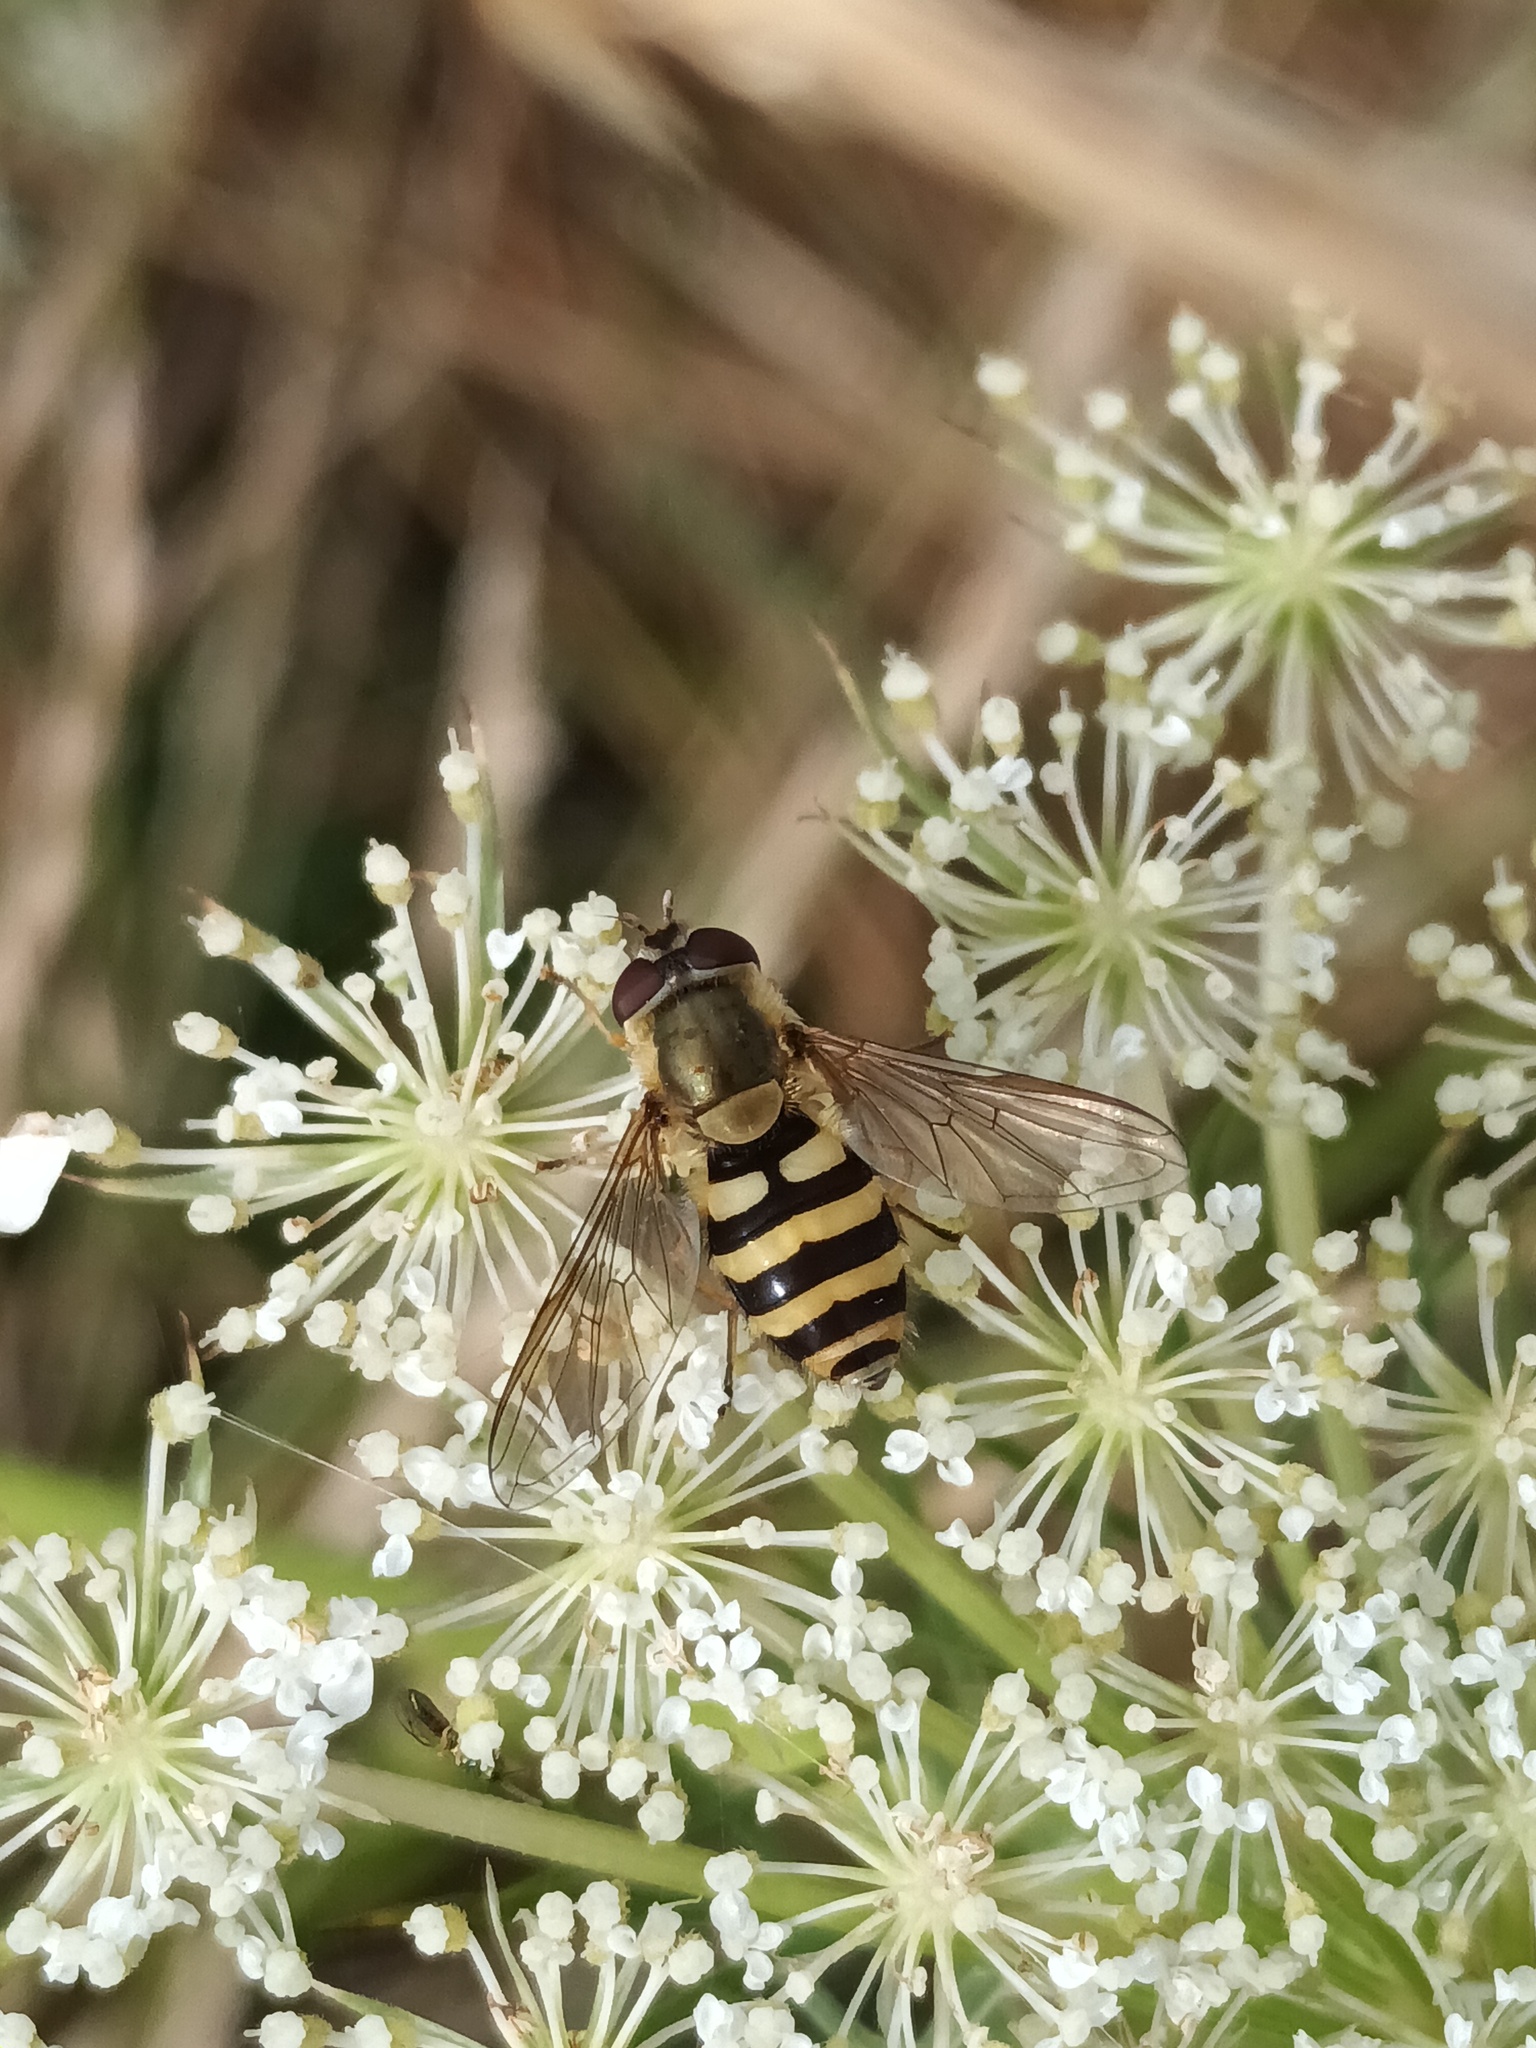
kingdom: Animalia
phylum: Arthropoda
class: Insecta
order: Diptera
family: Syrphidae
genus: Syrphus
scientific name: Syrphus ribesii
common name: Common flower fly
